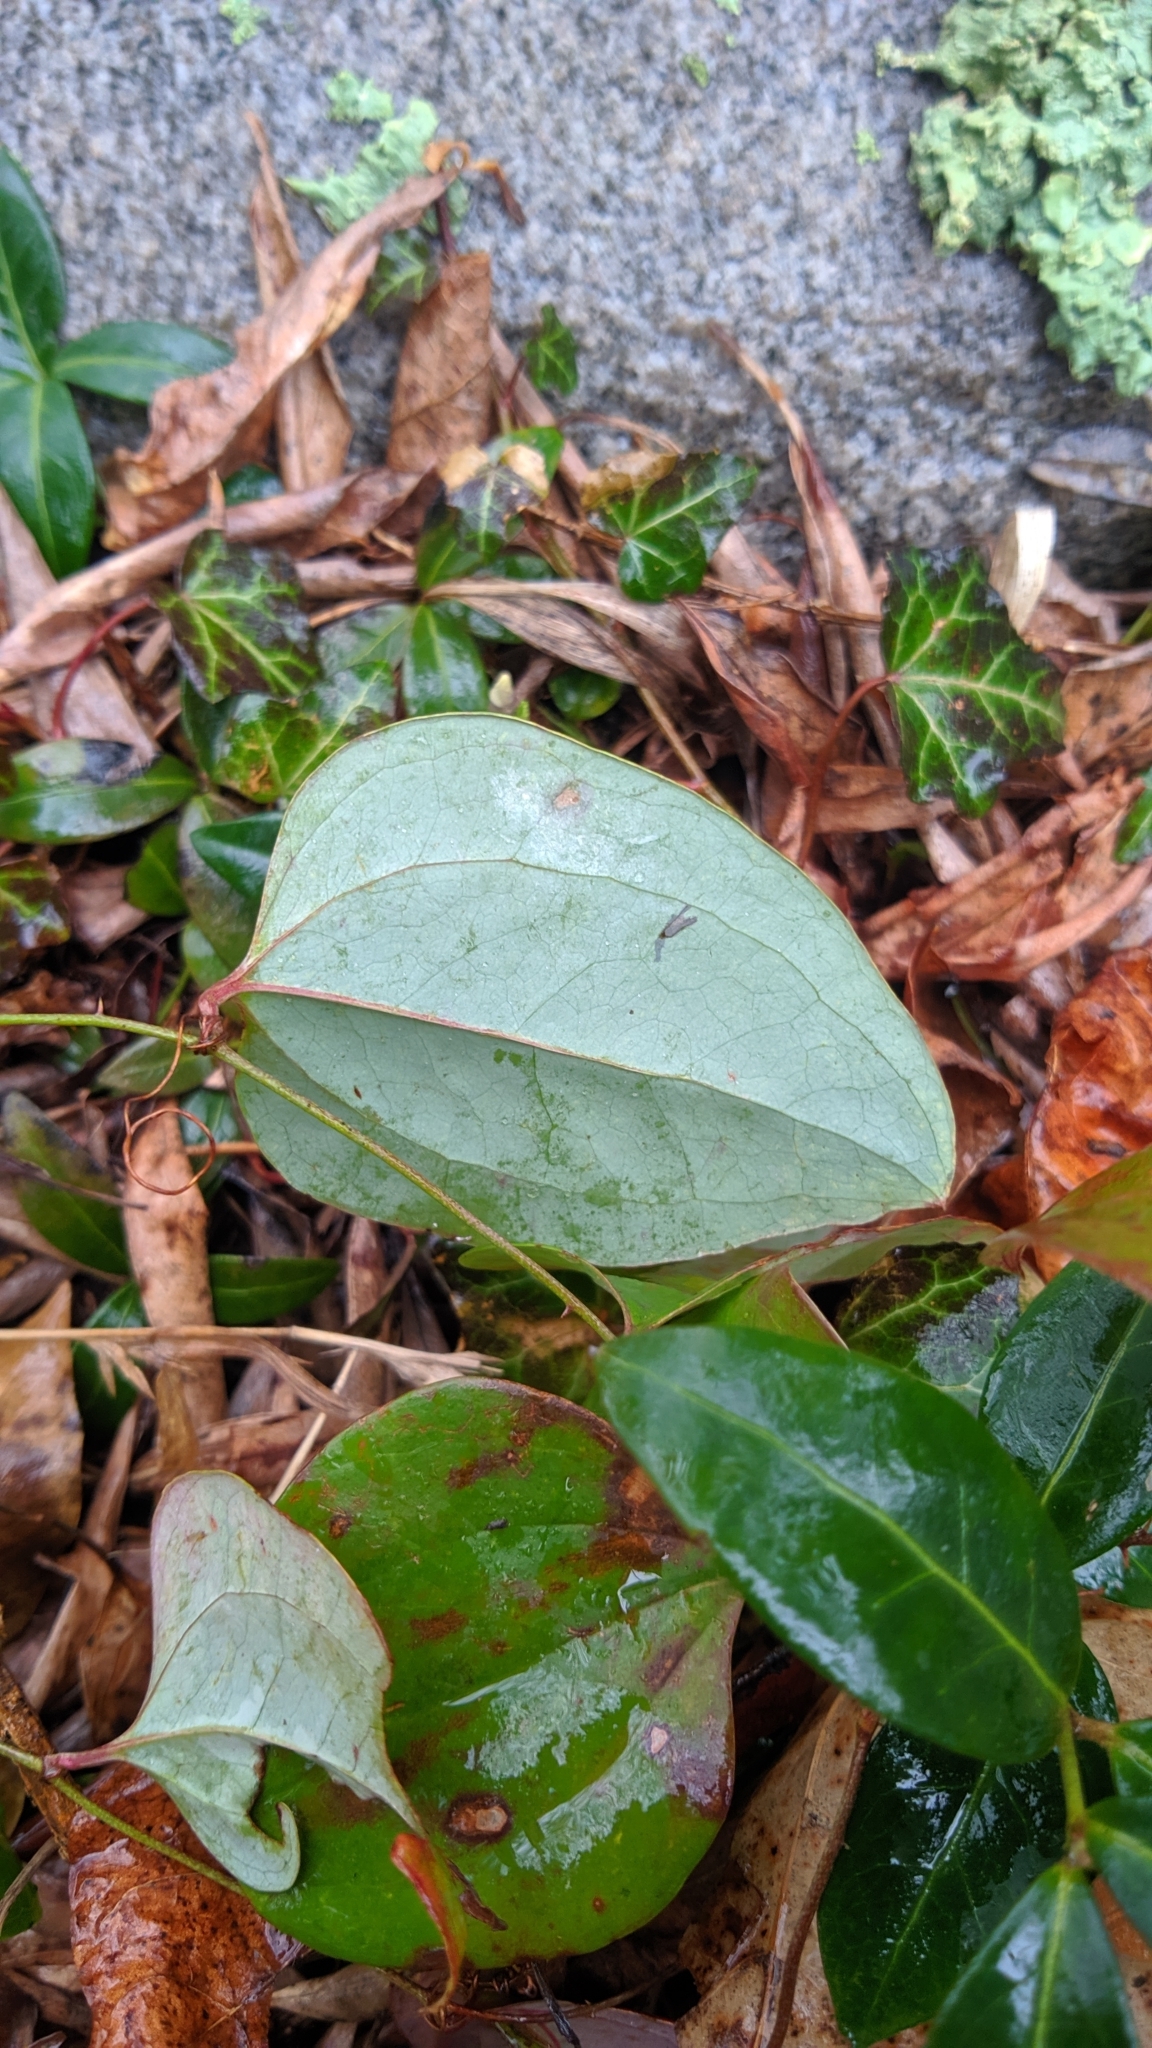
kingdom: Plantae
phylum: Tracheophyta
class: Liliopsida
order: Liliales
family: Smilacaceae
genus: Smilax
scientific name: Smilax glauca
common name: Cat greenbrier
